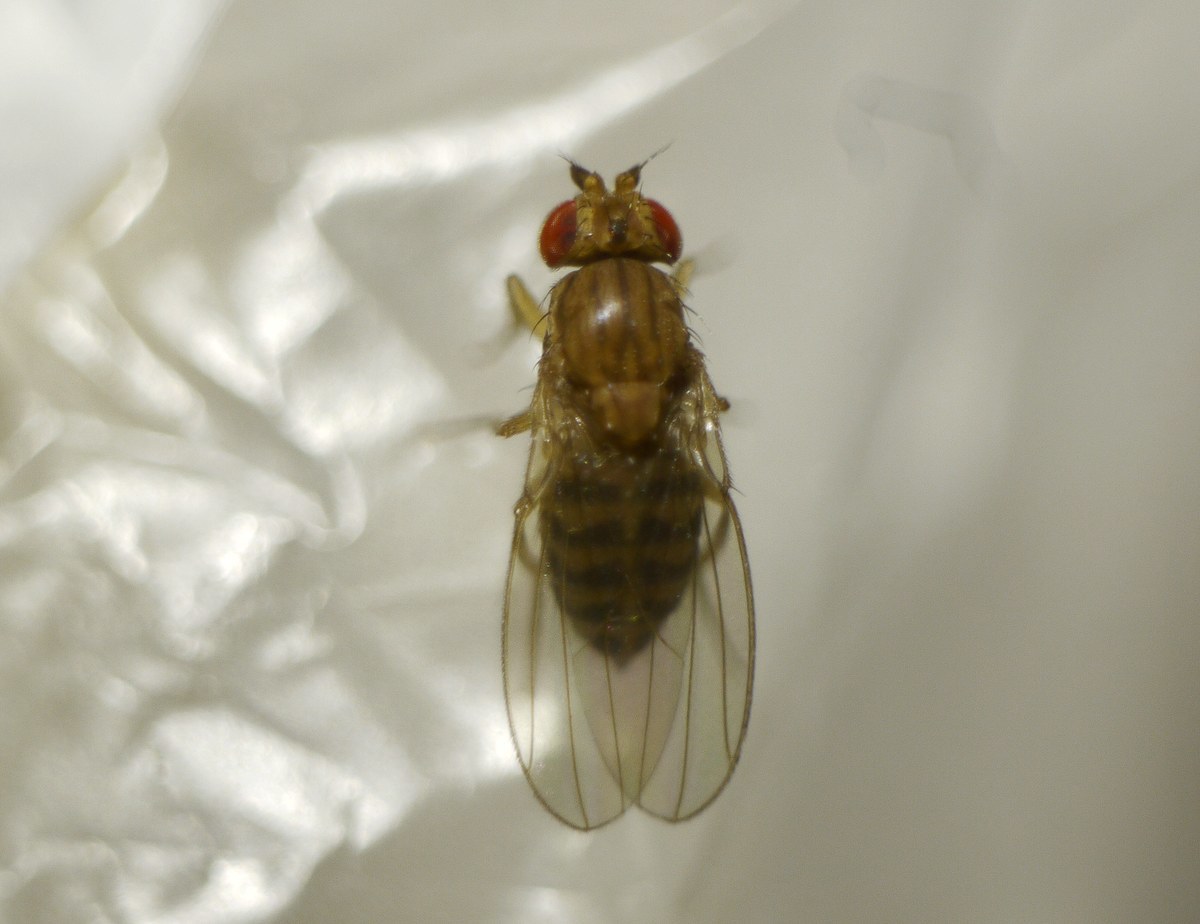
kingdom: Animalia
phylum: Arthropoda
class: Insecta
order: Diptera
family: Drosophilidae
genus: Drosophila
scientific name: Drosophila busckii
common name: Pomace fly
